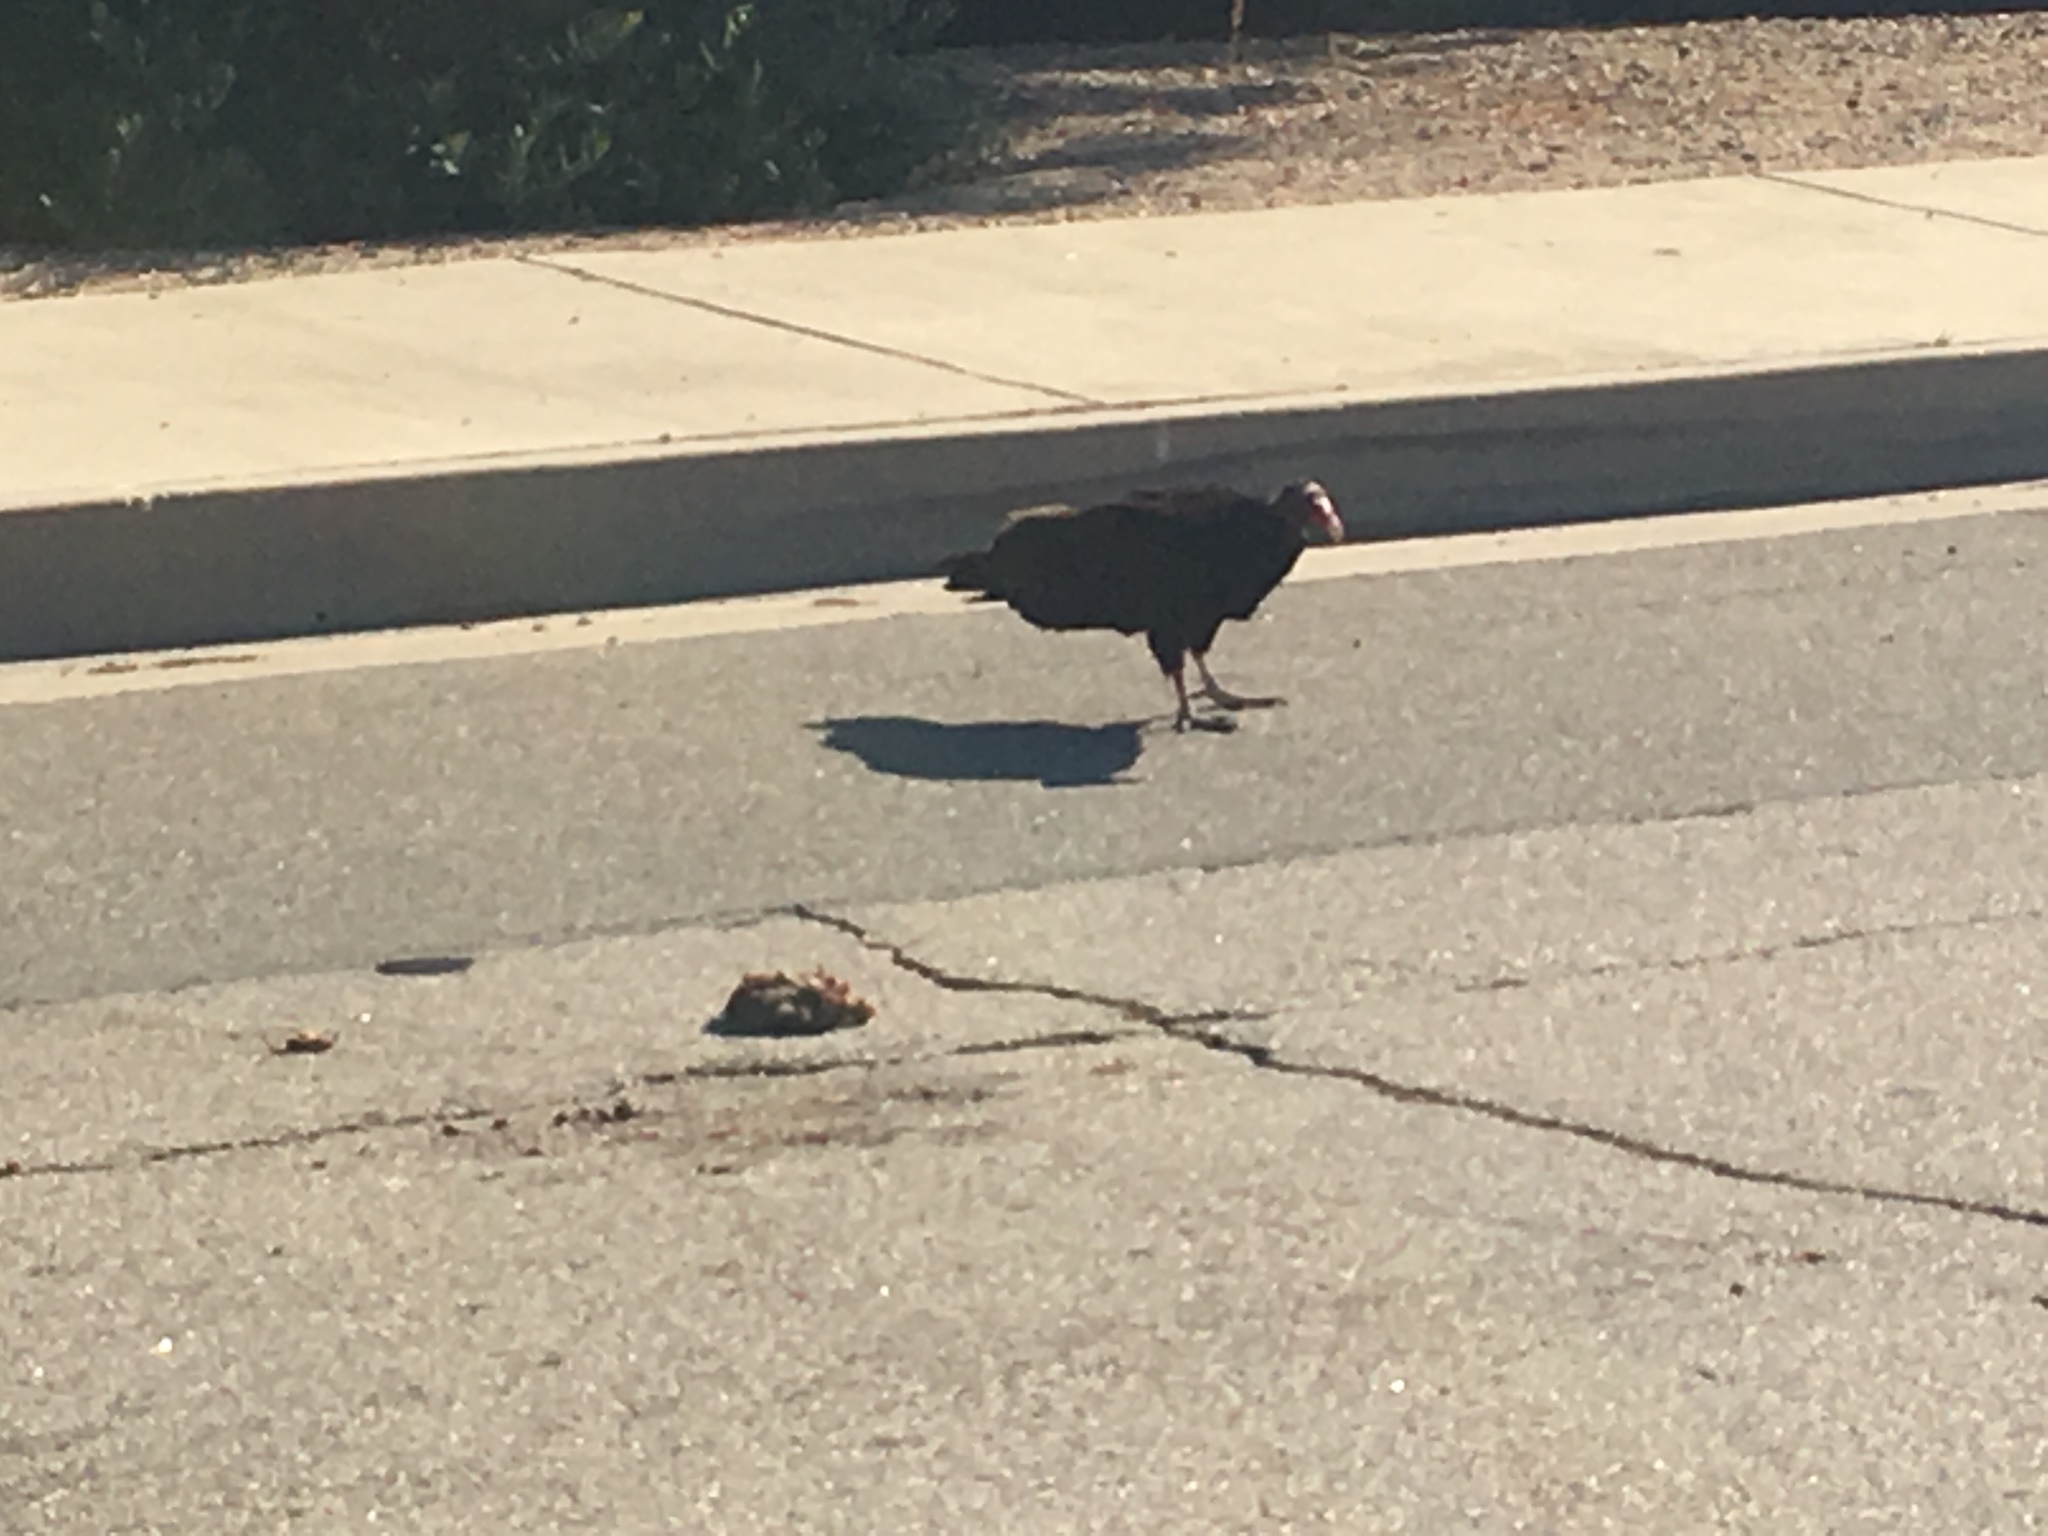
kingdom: Animalia
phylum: Chordata
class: Aves
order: Accipitriformes
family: Cathartidae
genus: Cathartes
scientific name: Cathartes aura
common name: Turkey vulture
